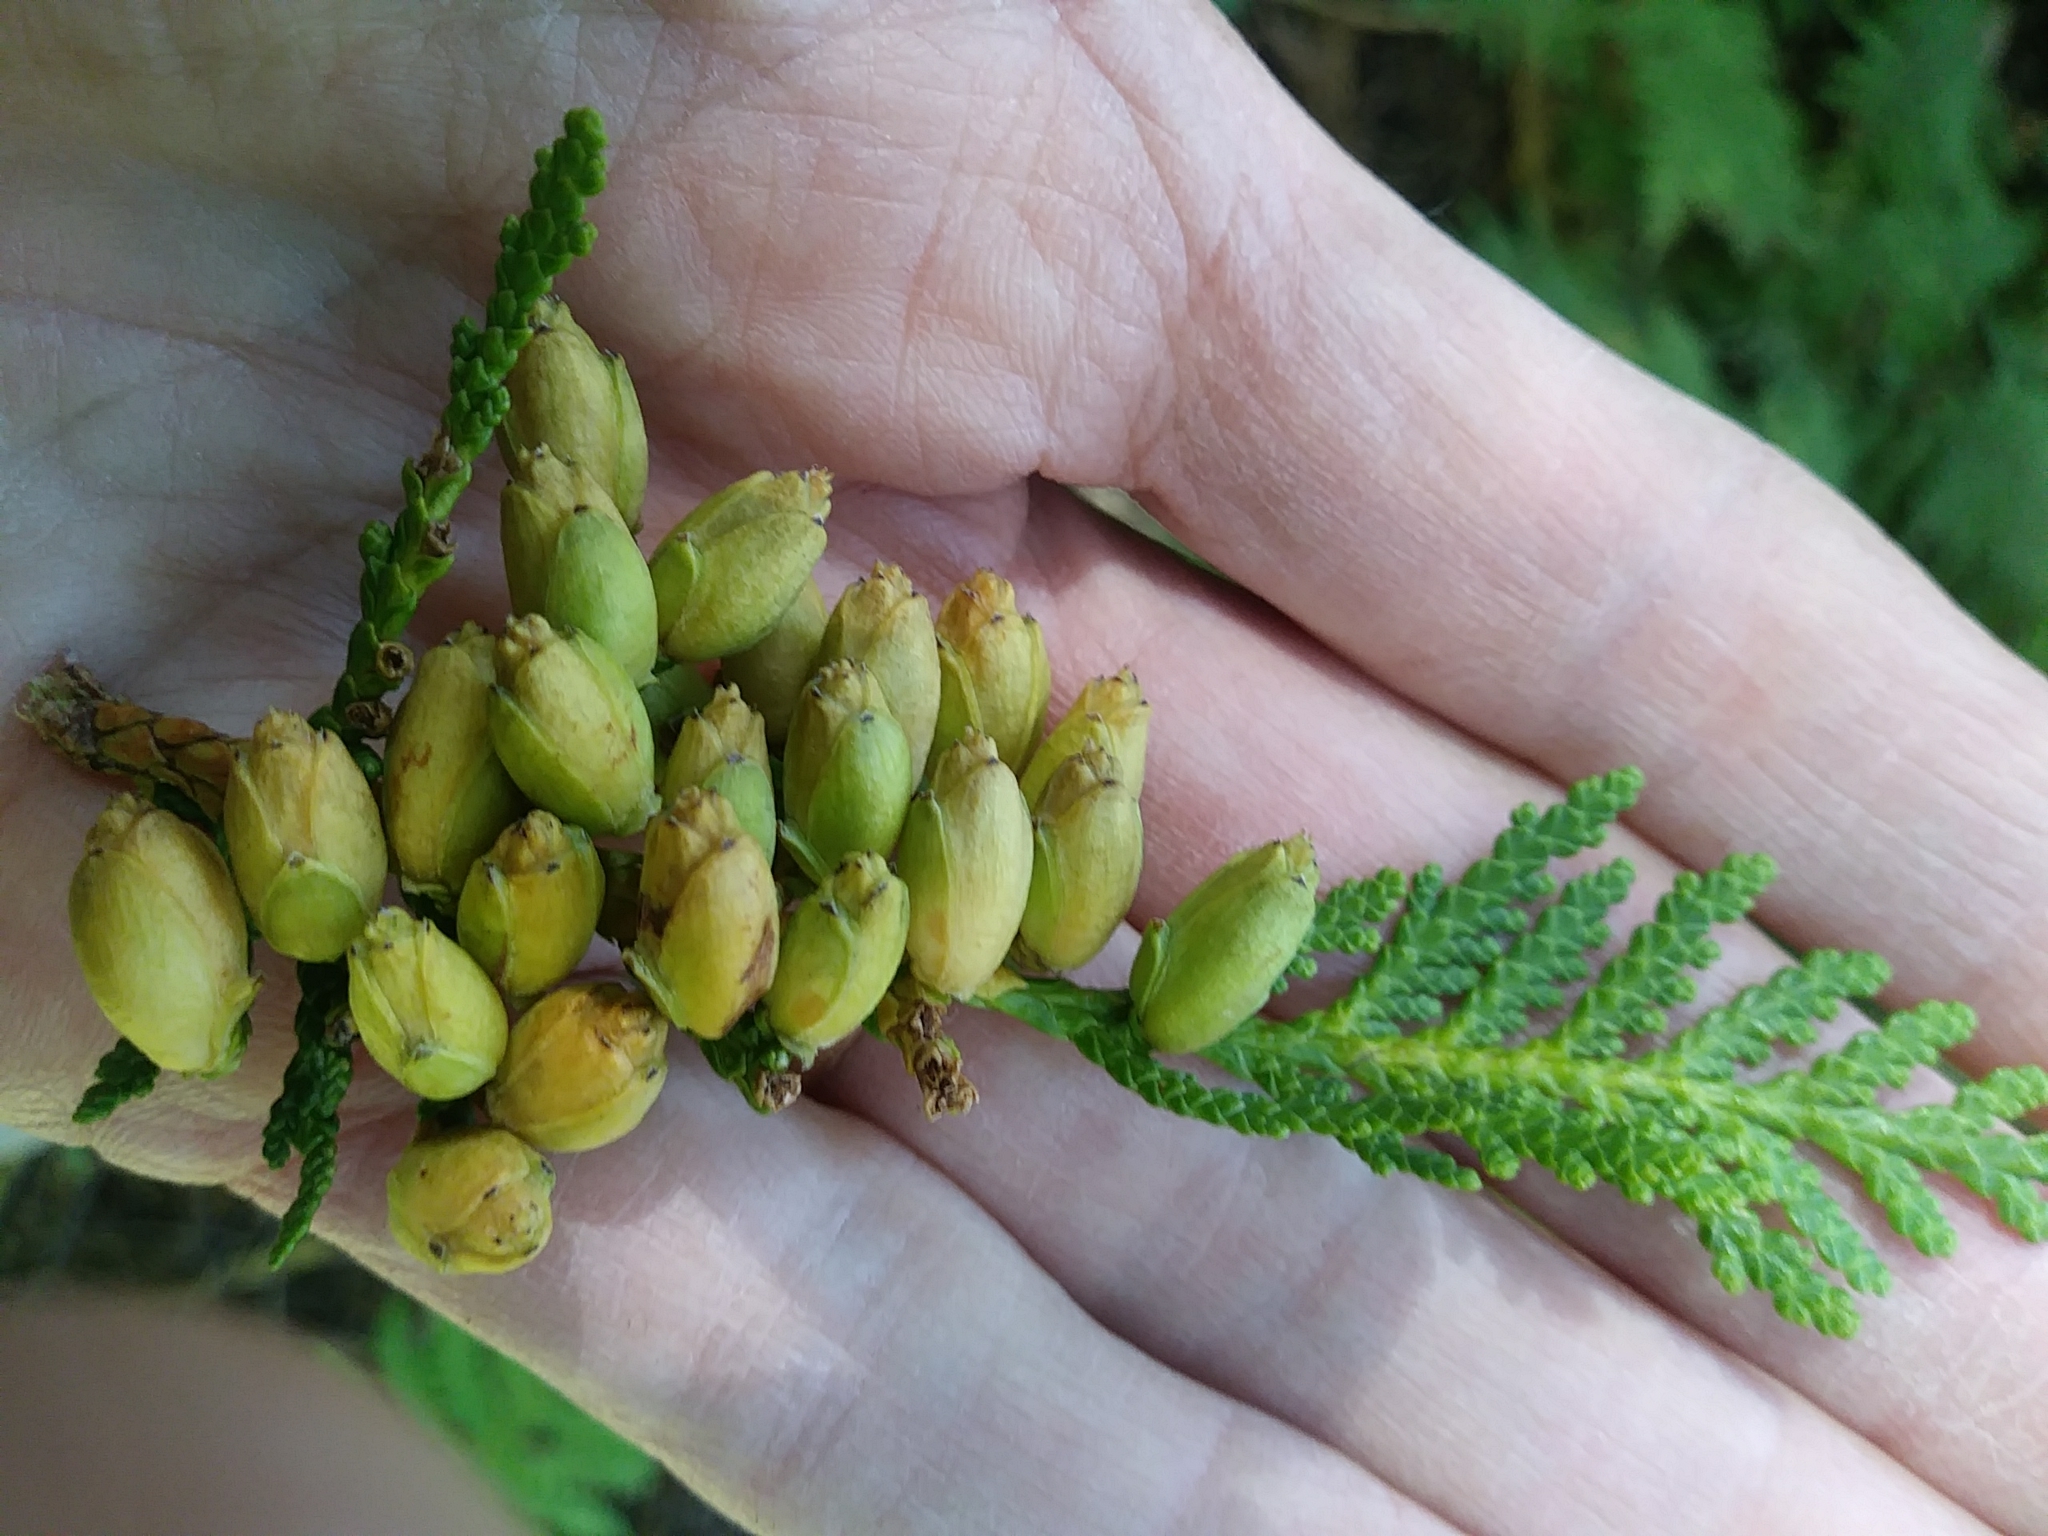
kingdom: Plantae
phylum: Tracheophyta
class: Pinopsida
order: Pinales
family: Cupressaceae
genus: Thuja
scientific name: Thuja occidentalis
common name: Northern white-cedar
